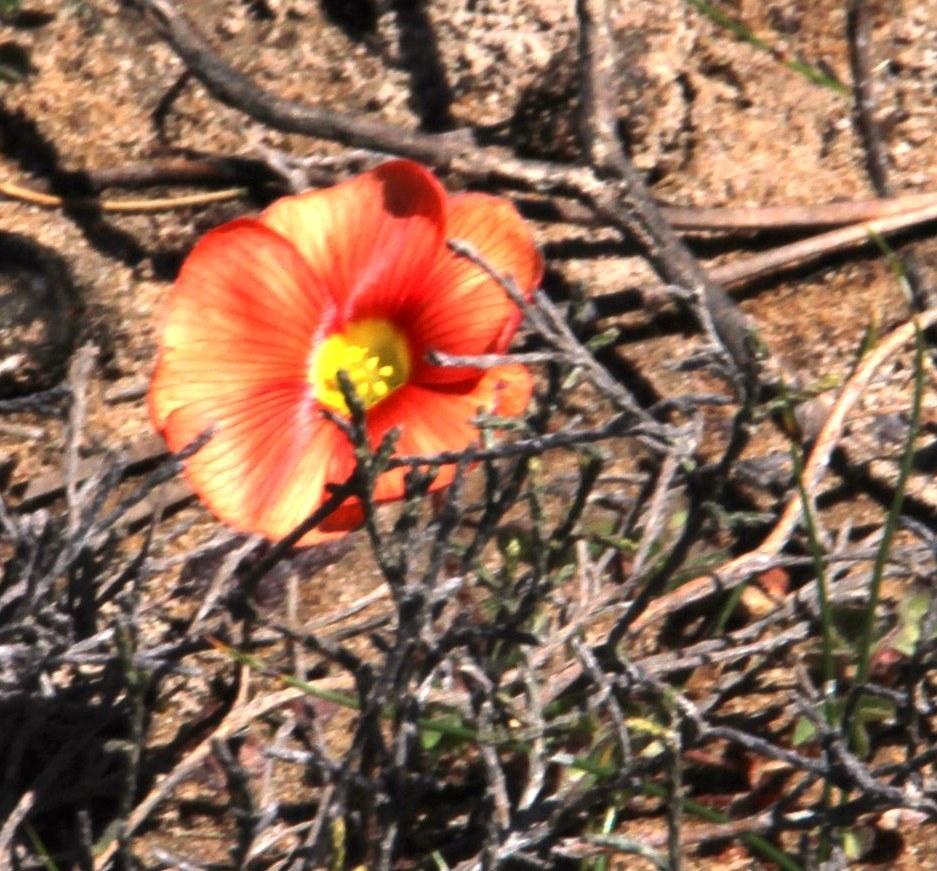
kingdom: Plantae
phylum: Tracheophyta
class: Magnoliopsida
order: Oxalidales
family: Oxalidaceae
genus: Oxalis
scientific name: Oxalis obtusa
